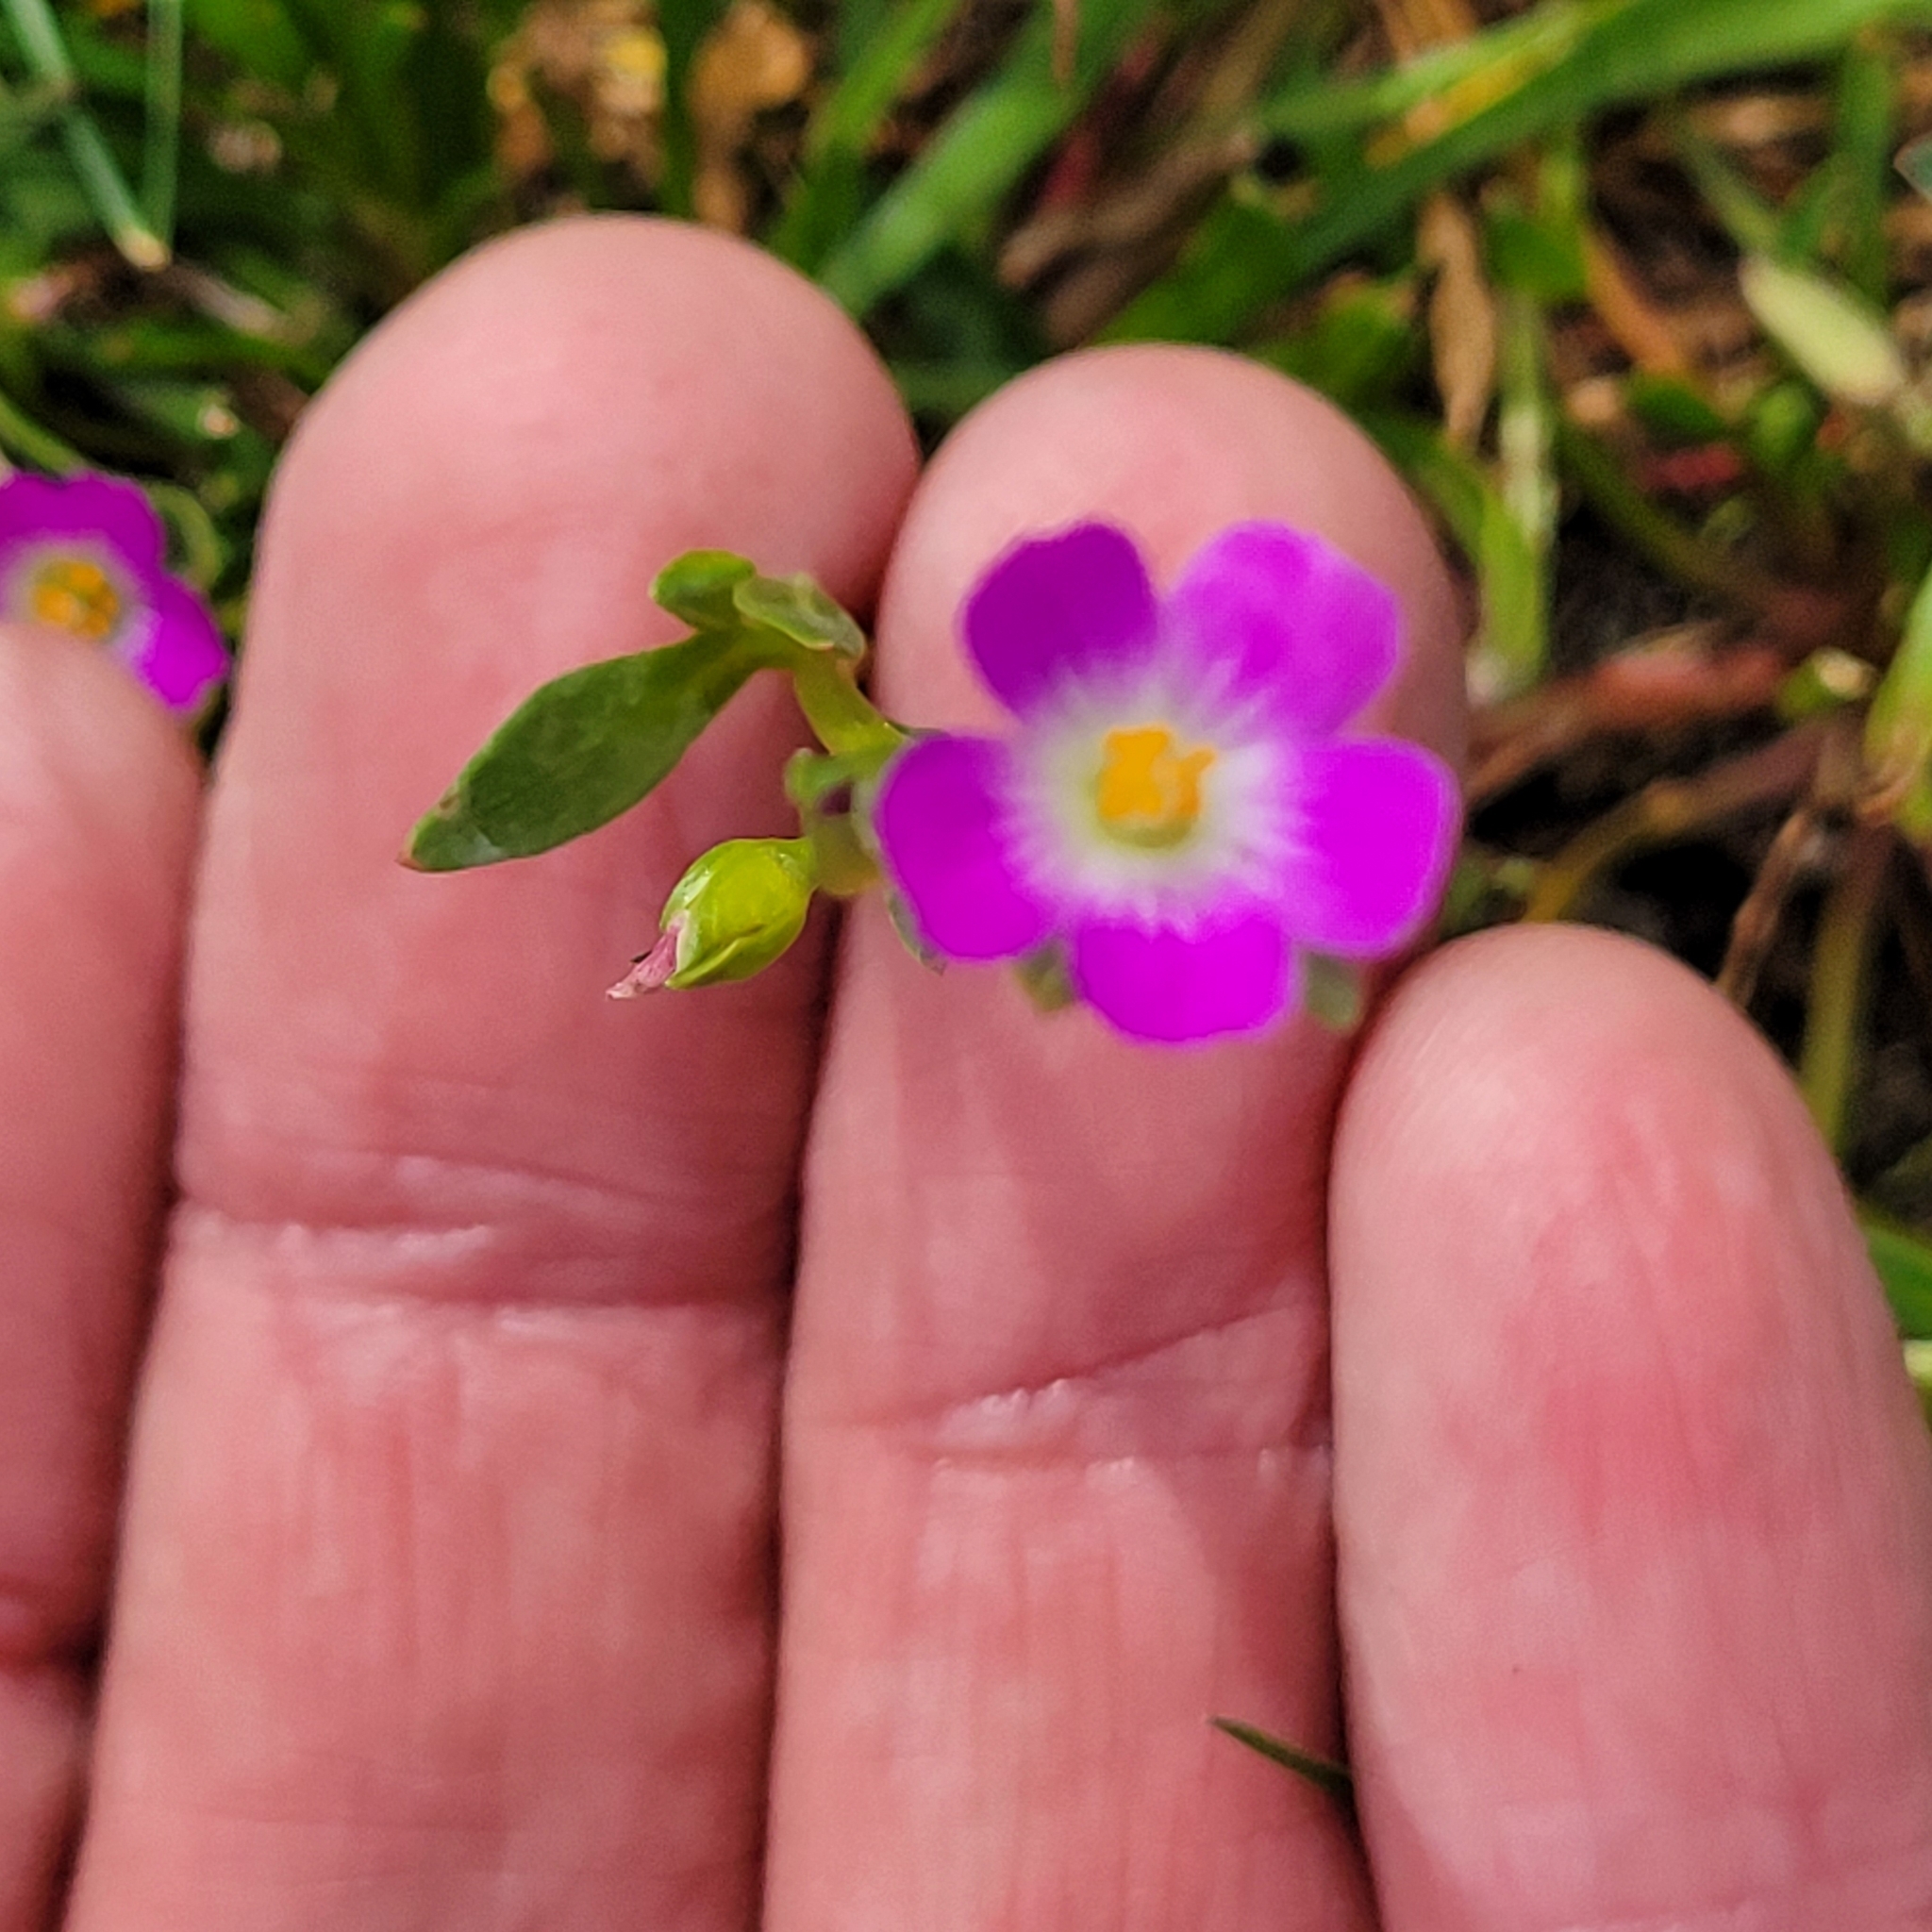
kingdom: Plantae
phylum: Tracheophyta
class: Magnoliopsida
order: Caryophyllales
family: Montiaceae
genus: Calandrinia
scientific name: Calandrinia menziesii
